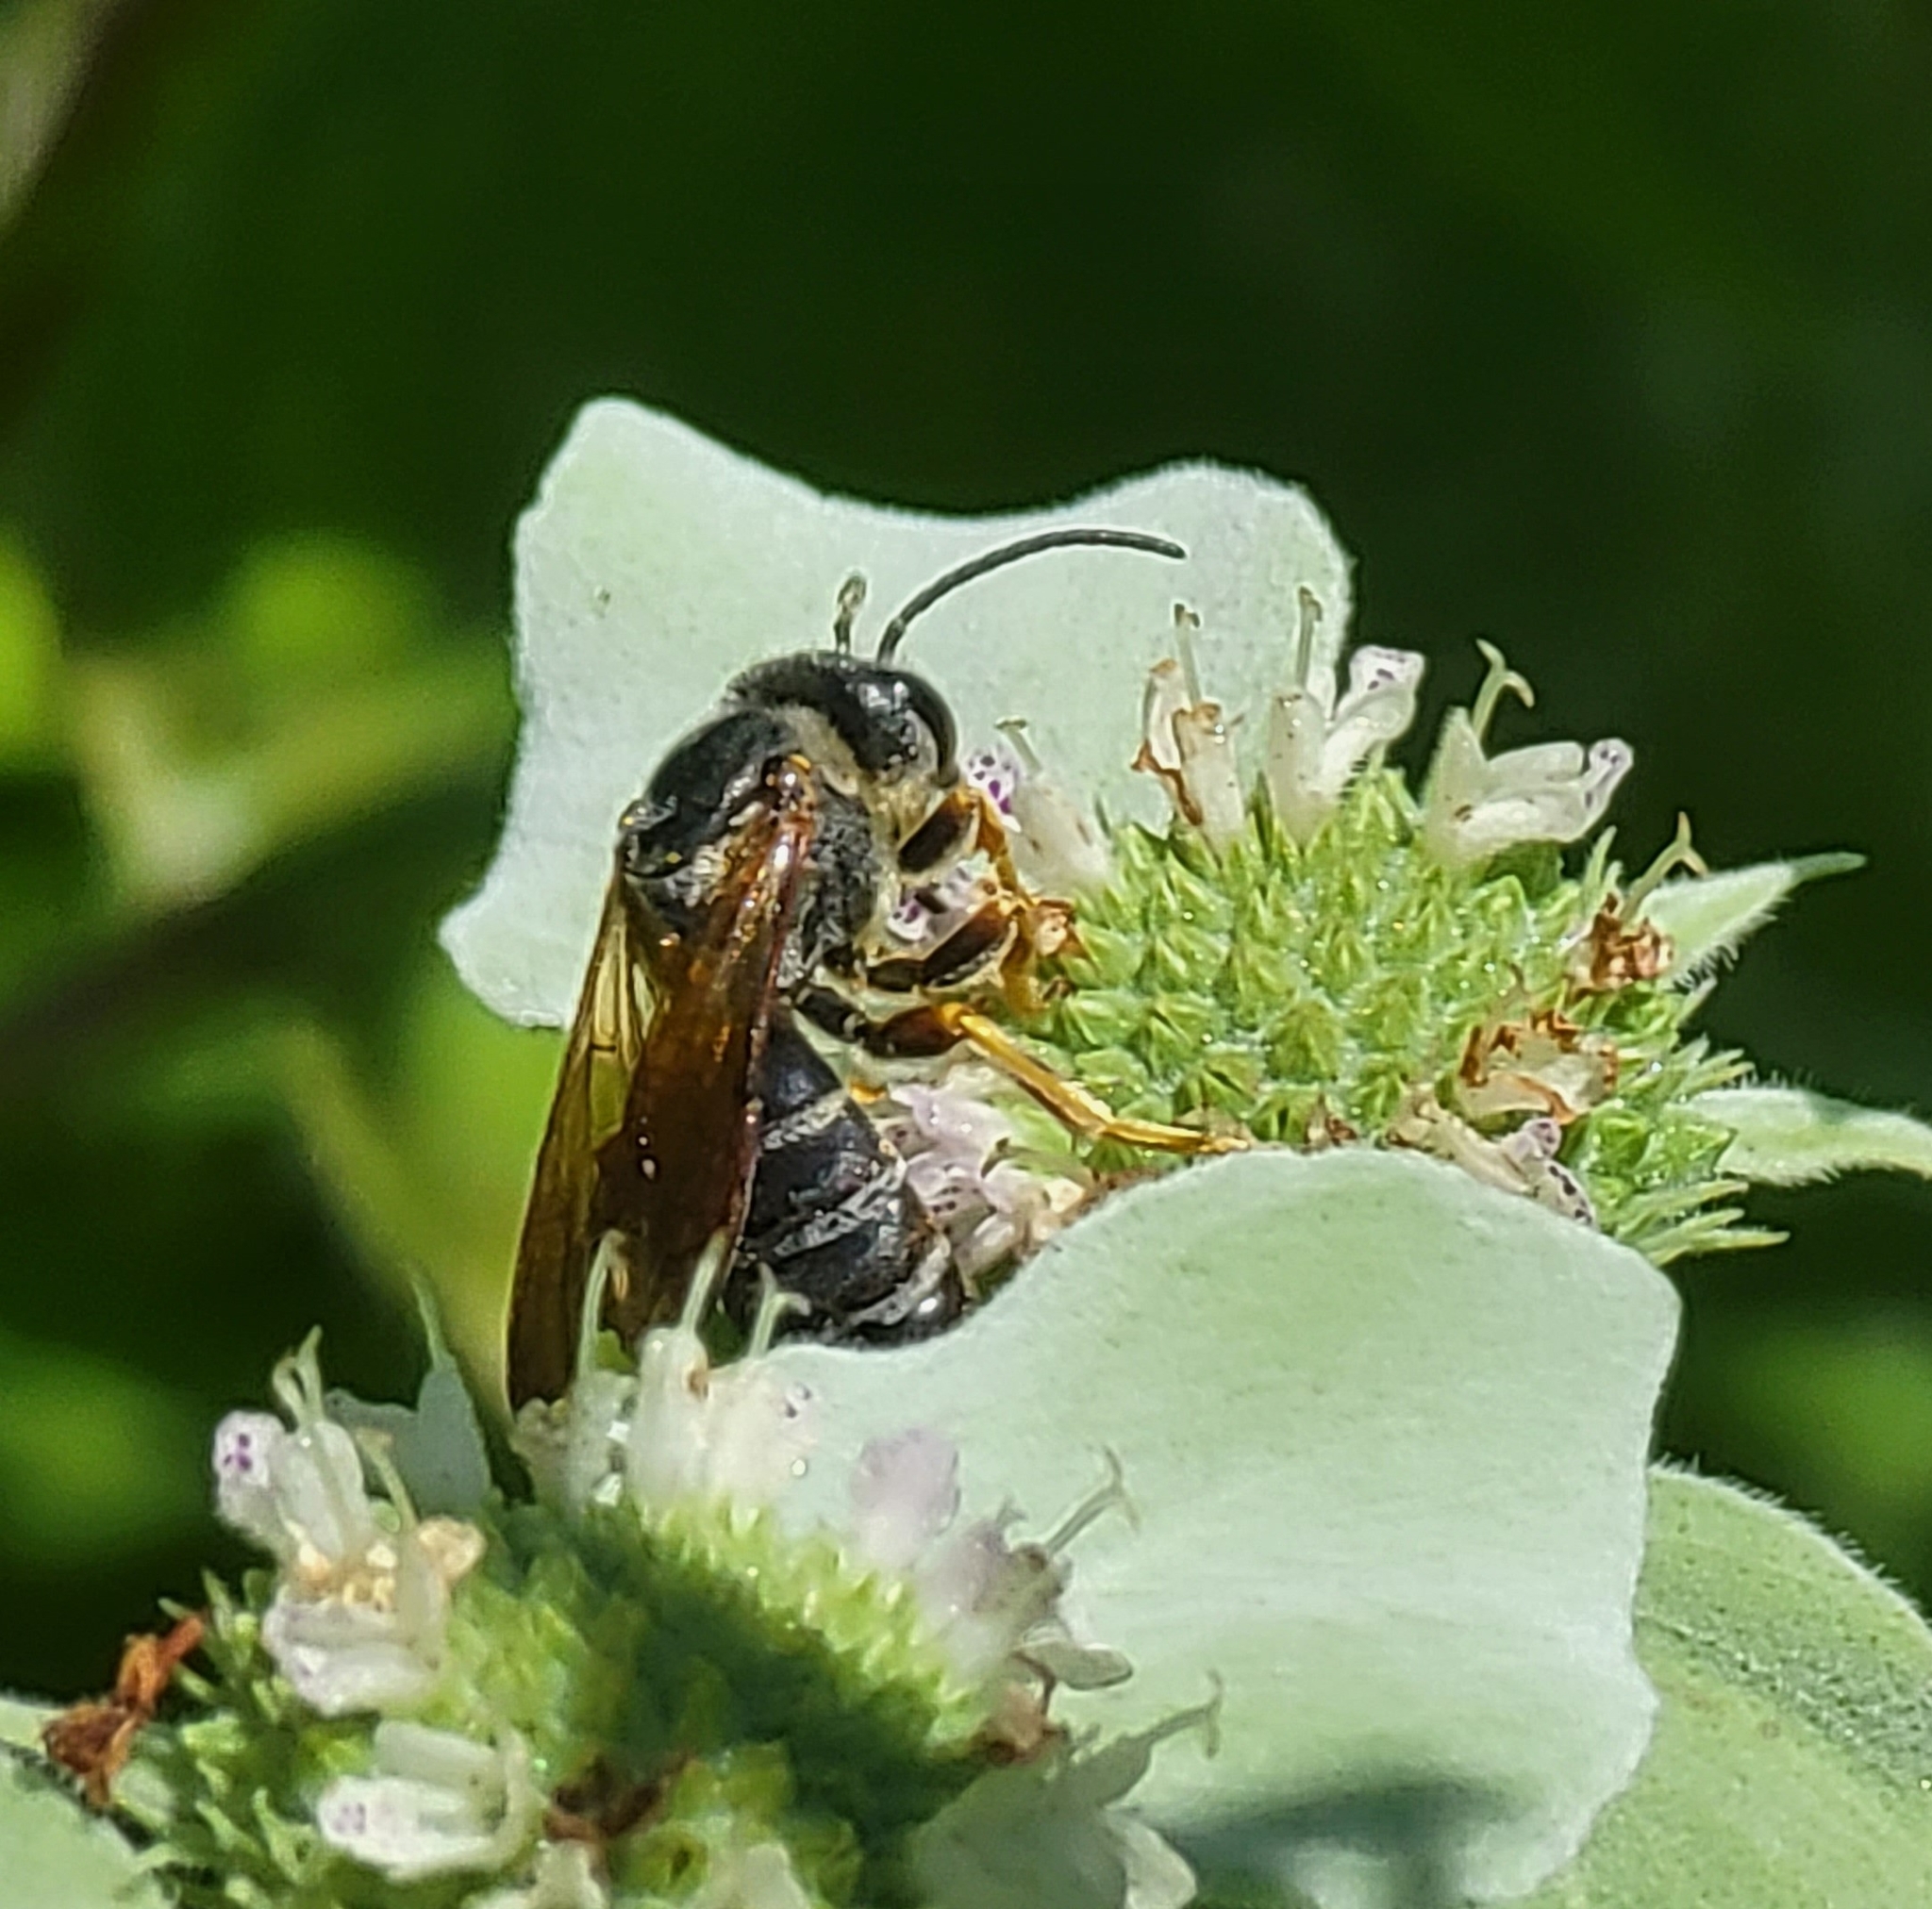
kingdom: Animalia
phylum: Arthropoda
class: Insecta
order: Hymenoptera
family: Halictidae
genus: Halictus
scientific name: Halictus parallelus
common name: Parallel-striped sweat bee
